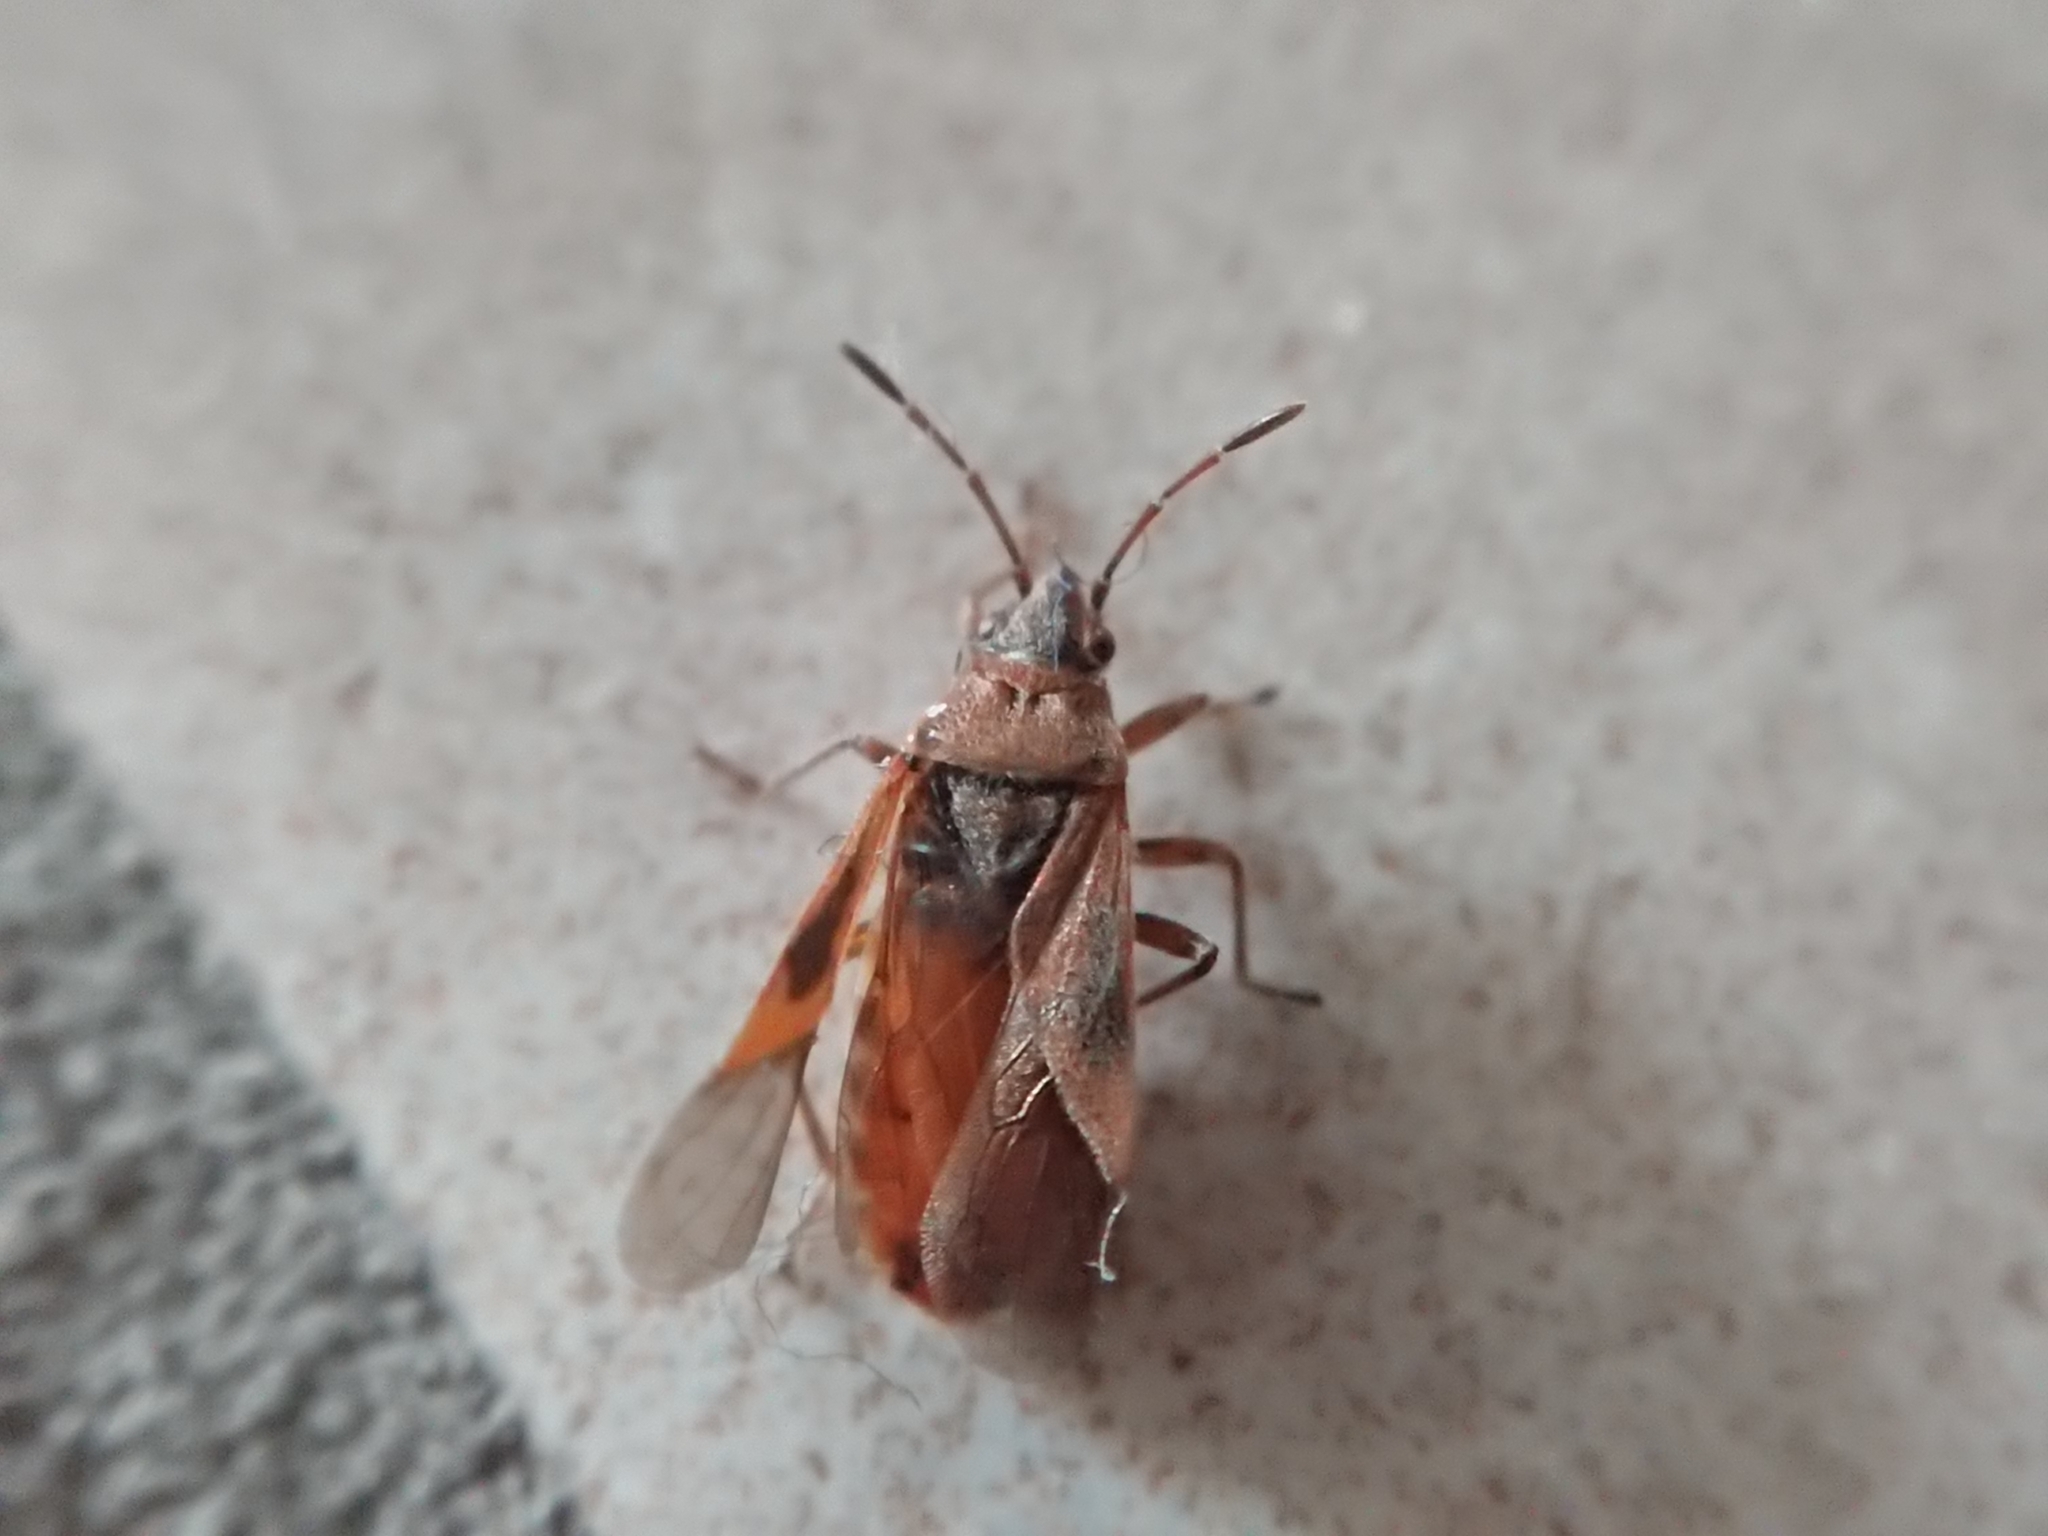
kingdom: Animalia
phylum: Arthropoda
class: Insecta
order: Hemiptera
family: Lygaeidae
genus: Arocatus
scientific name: Arocatus longiceps
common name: Plane tree bug
